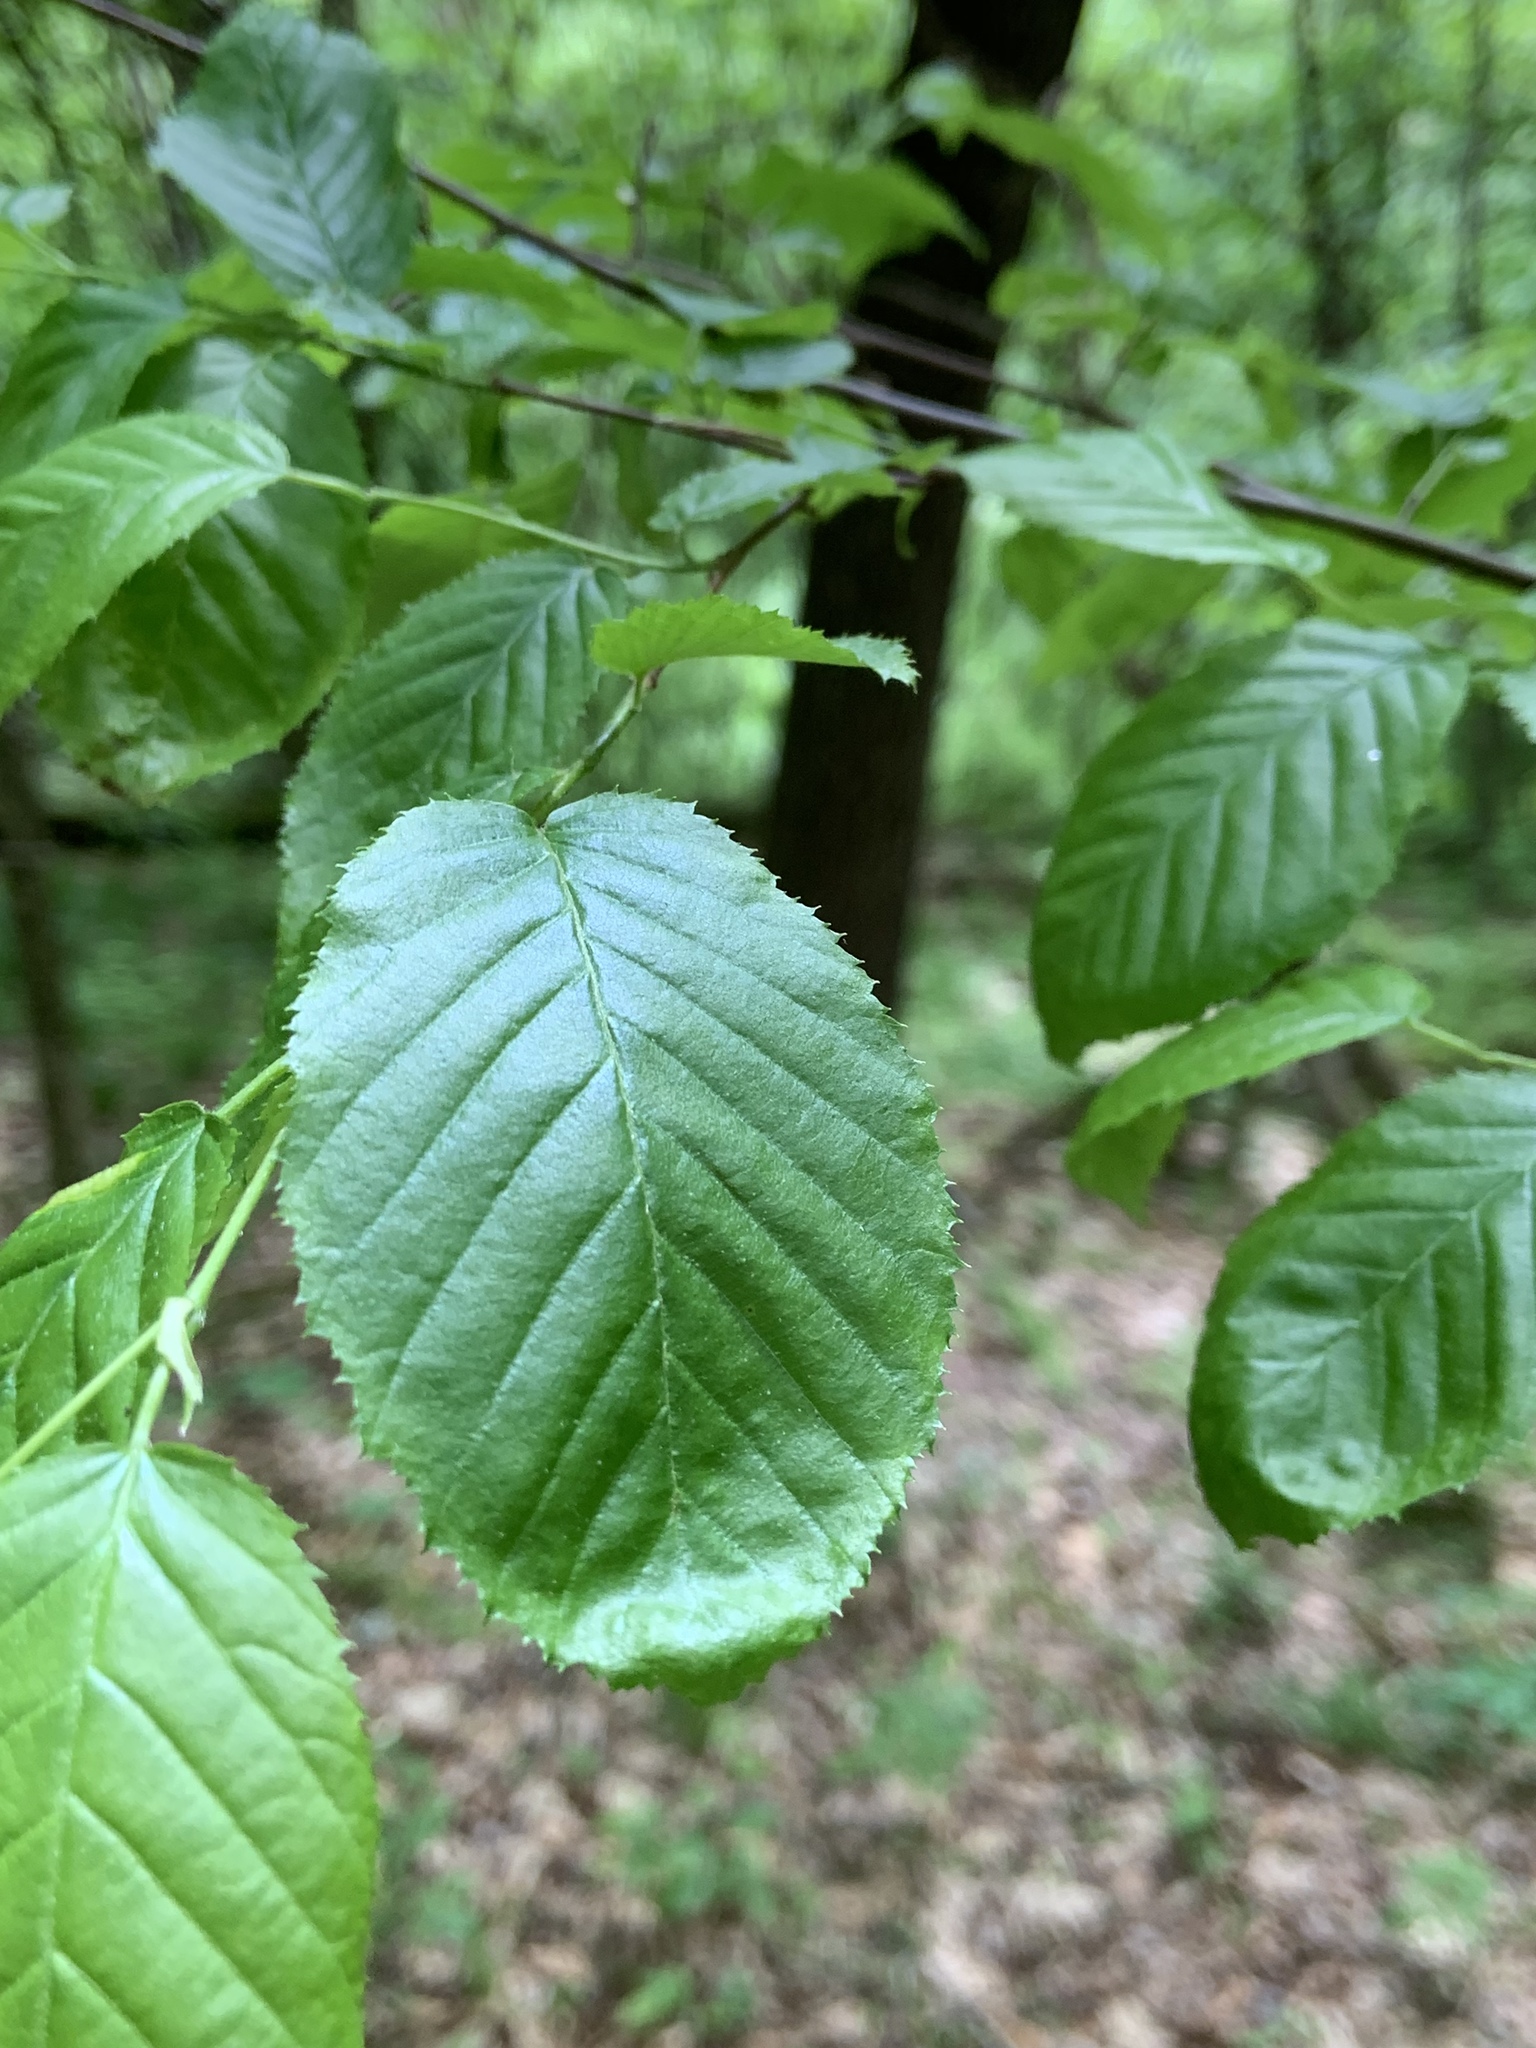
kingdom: Plantae
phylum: Tracheophyta
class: Magnoliopsida
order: Fagales
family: Betulaceae
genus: Carpinus
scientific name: Carpinus caroliniana
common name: American hornbeam
